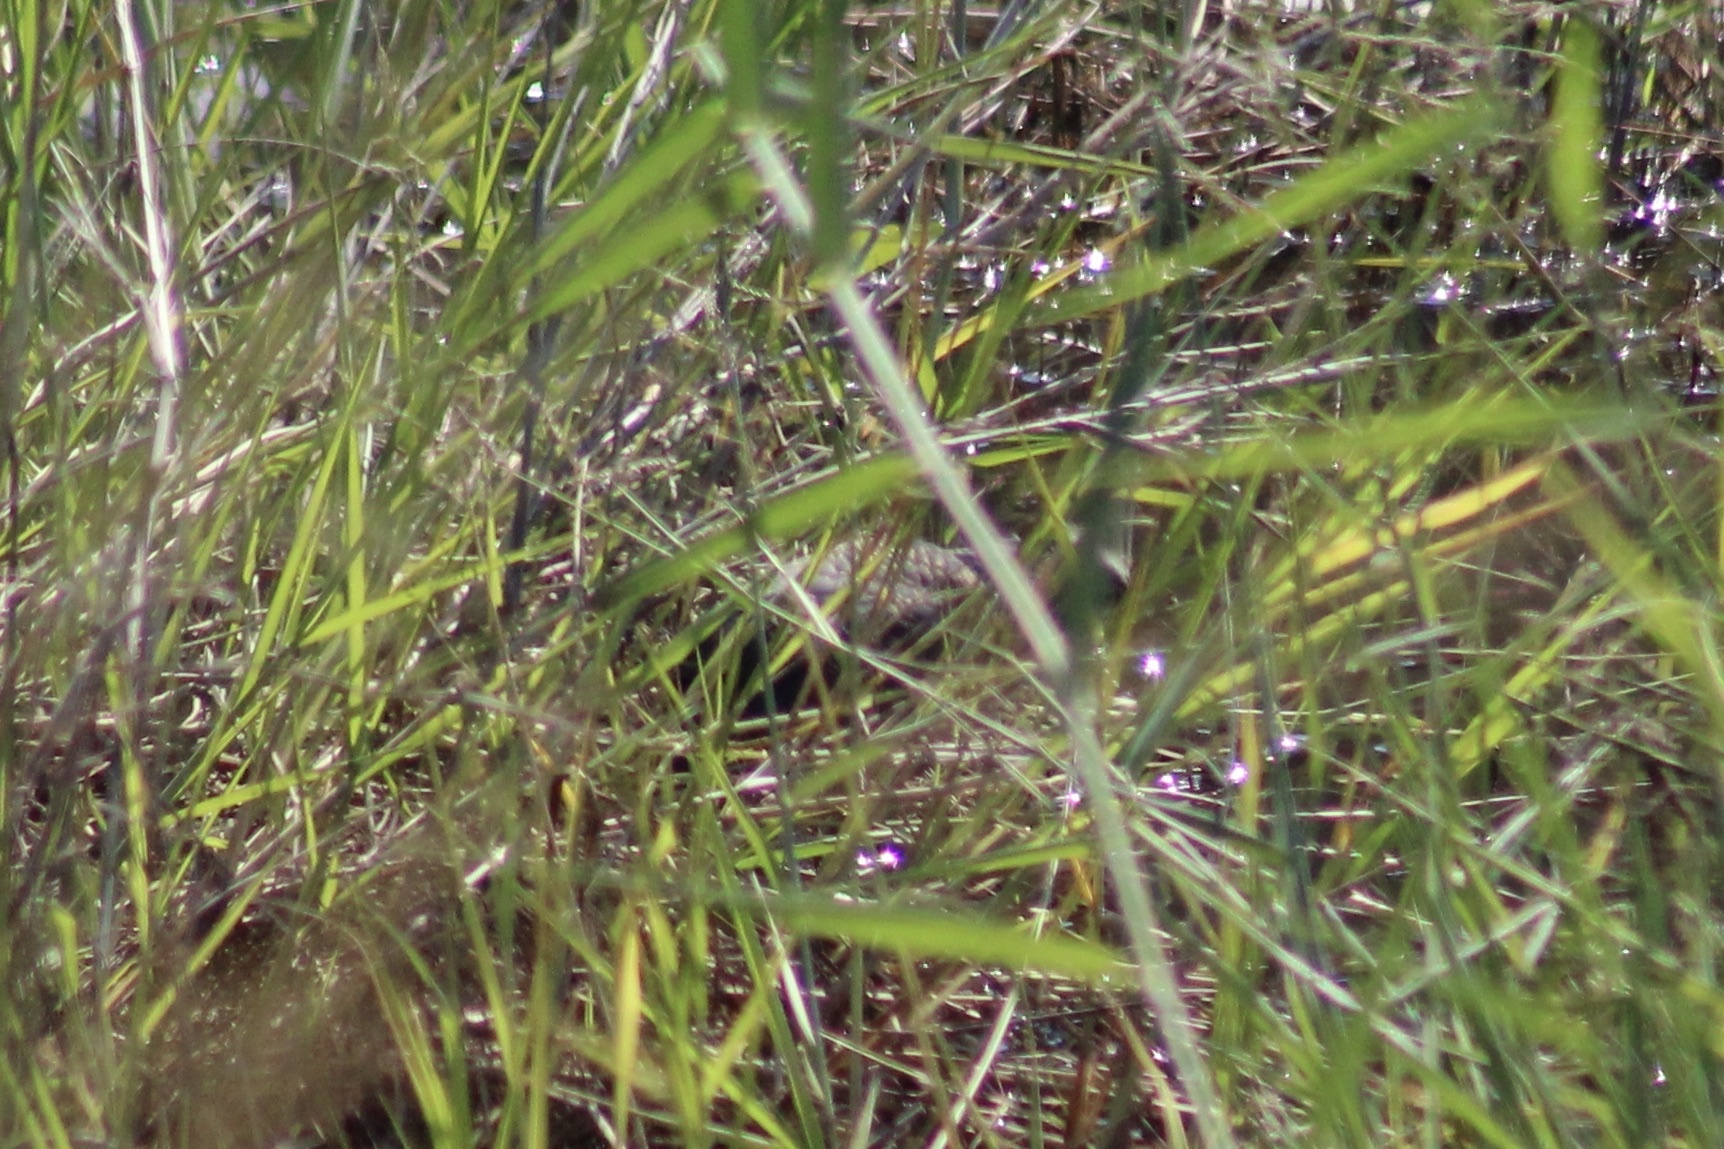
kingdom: Animalia
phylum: Chordata
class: Aves
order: Pelecaniformes
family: Ardeidae
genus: Ixobrychus
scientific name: Ixobrychus sturmii
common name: Dwarf bittern
